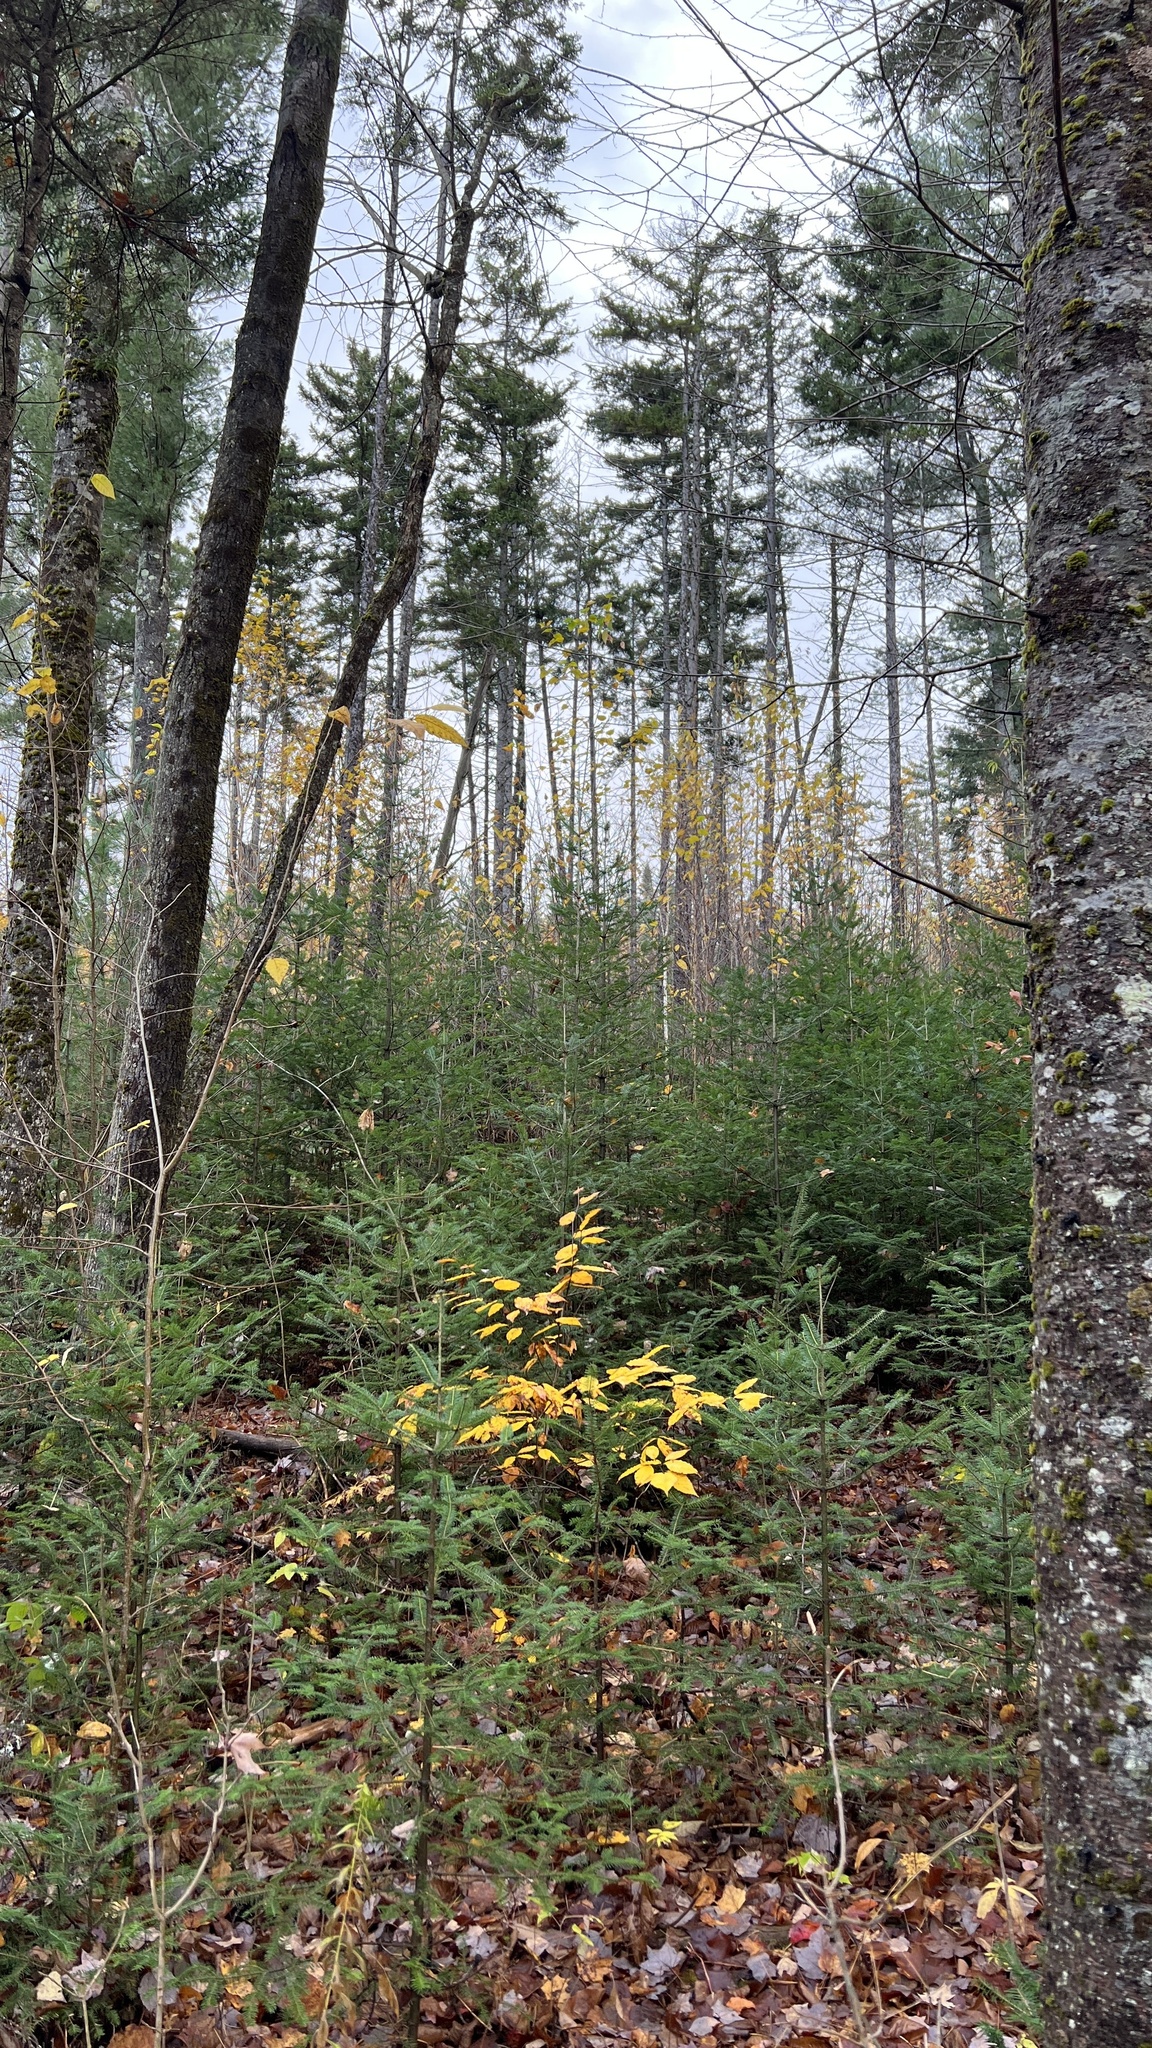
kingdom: Plantae
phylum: Tracheophyta
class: Pinopsida
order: Pinales
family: Pinaceae
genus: Picea
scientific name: Picea rubens
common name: Red spruce
